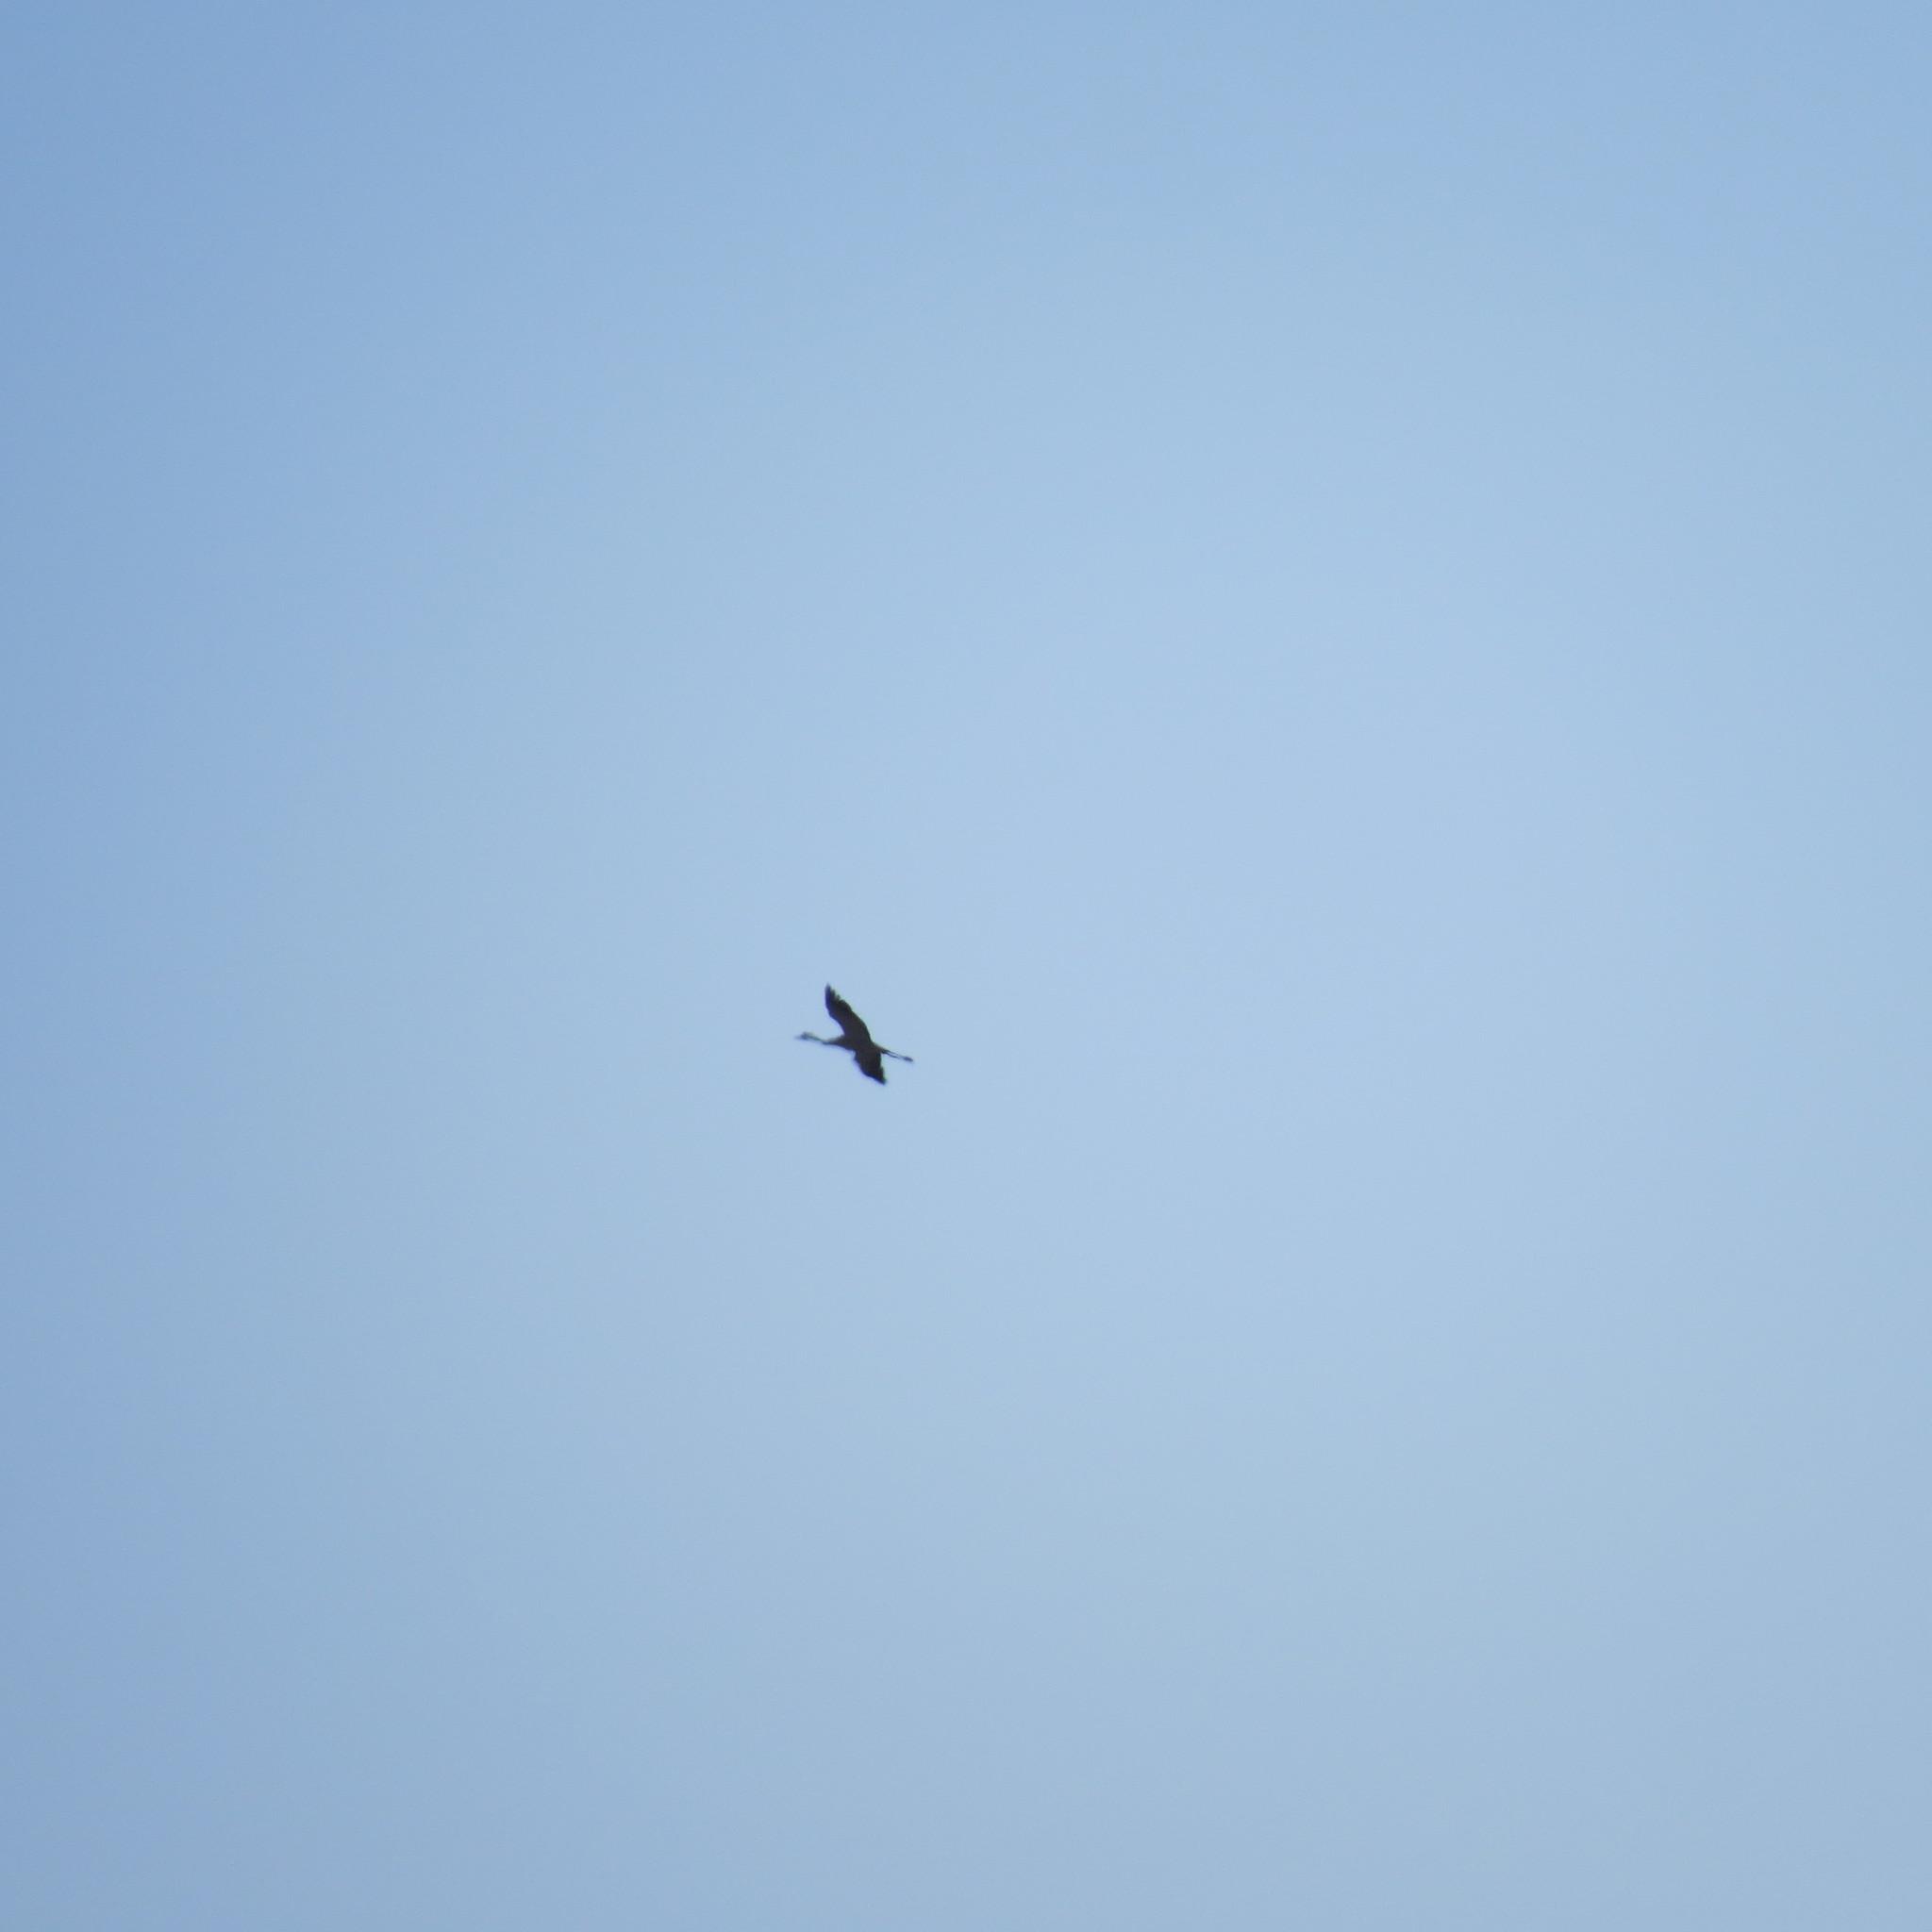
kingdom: Animalia
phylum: Chordata
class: Aves
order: Gruiformes
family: Gruidae
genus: Grus
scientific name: Grus grus
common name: Common crane
